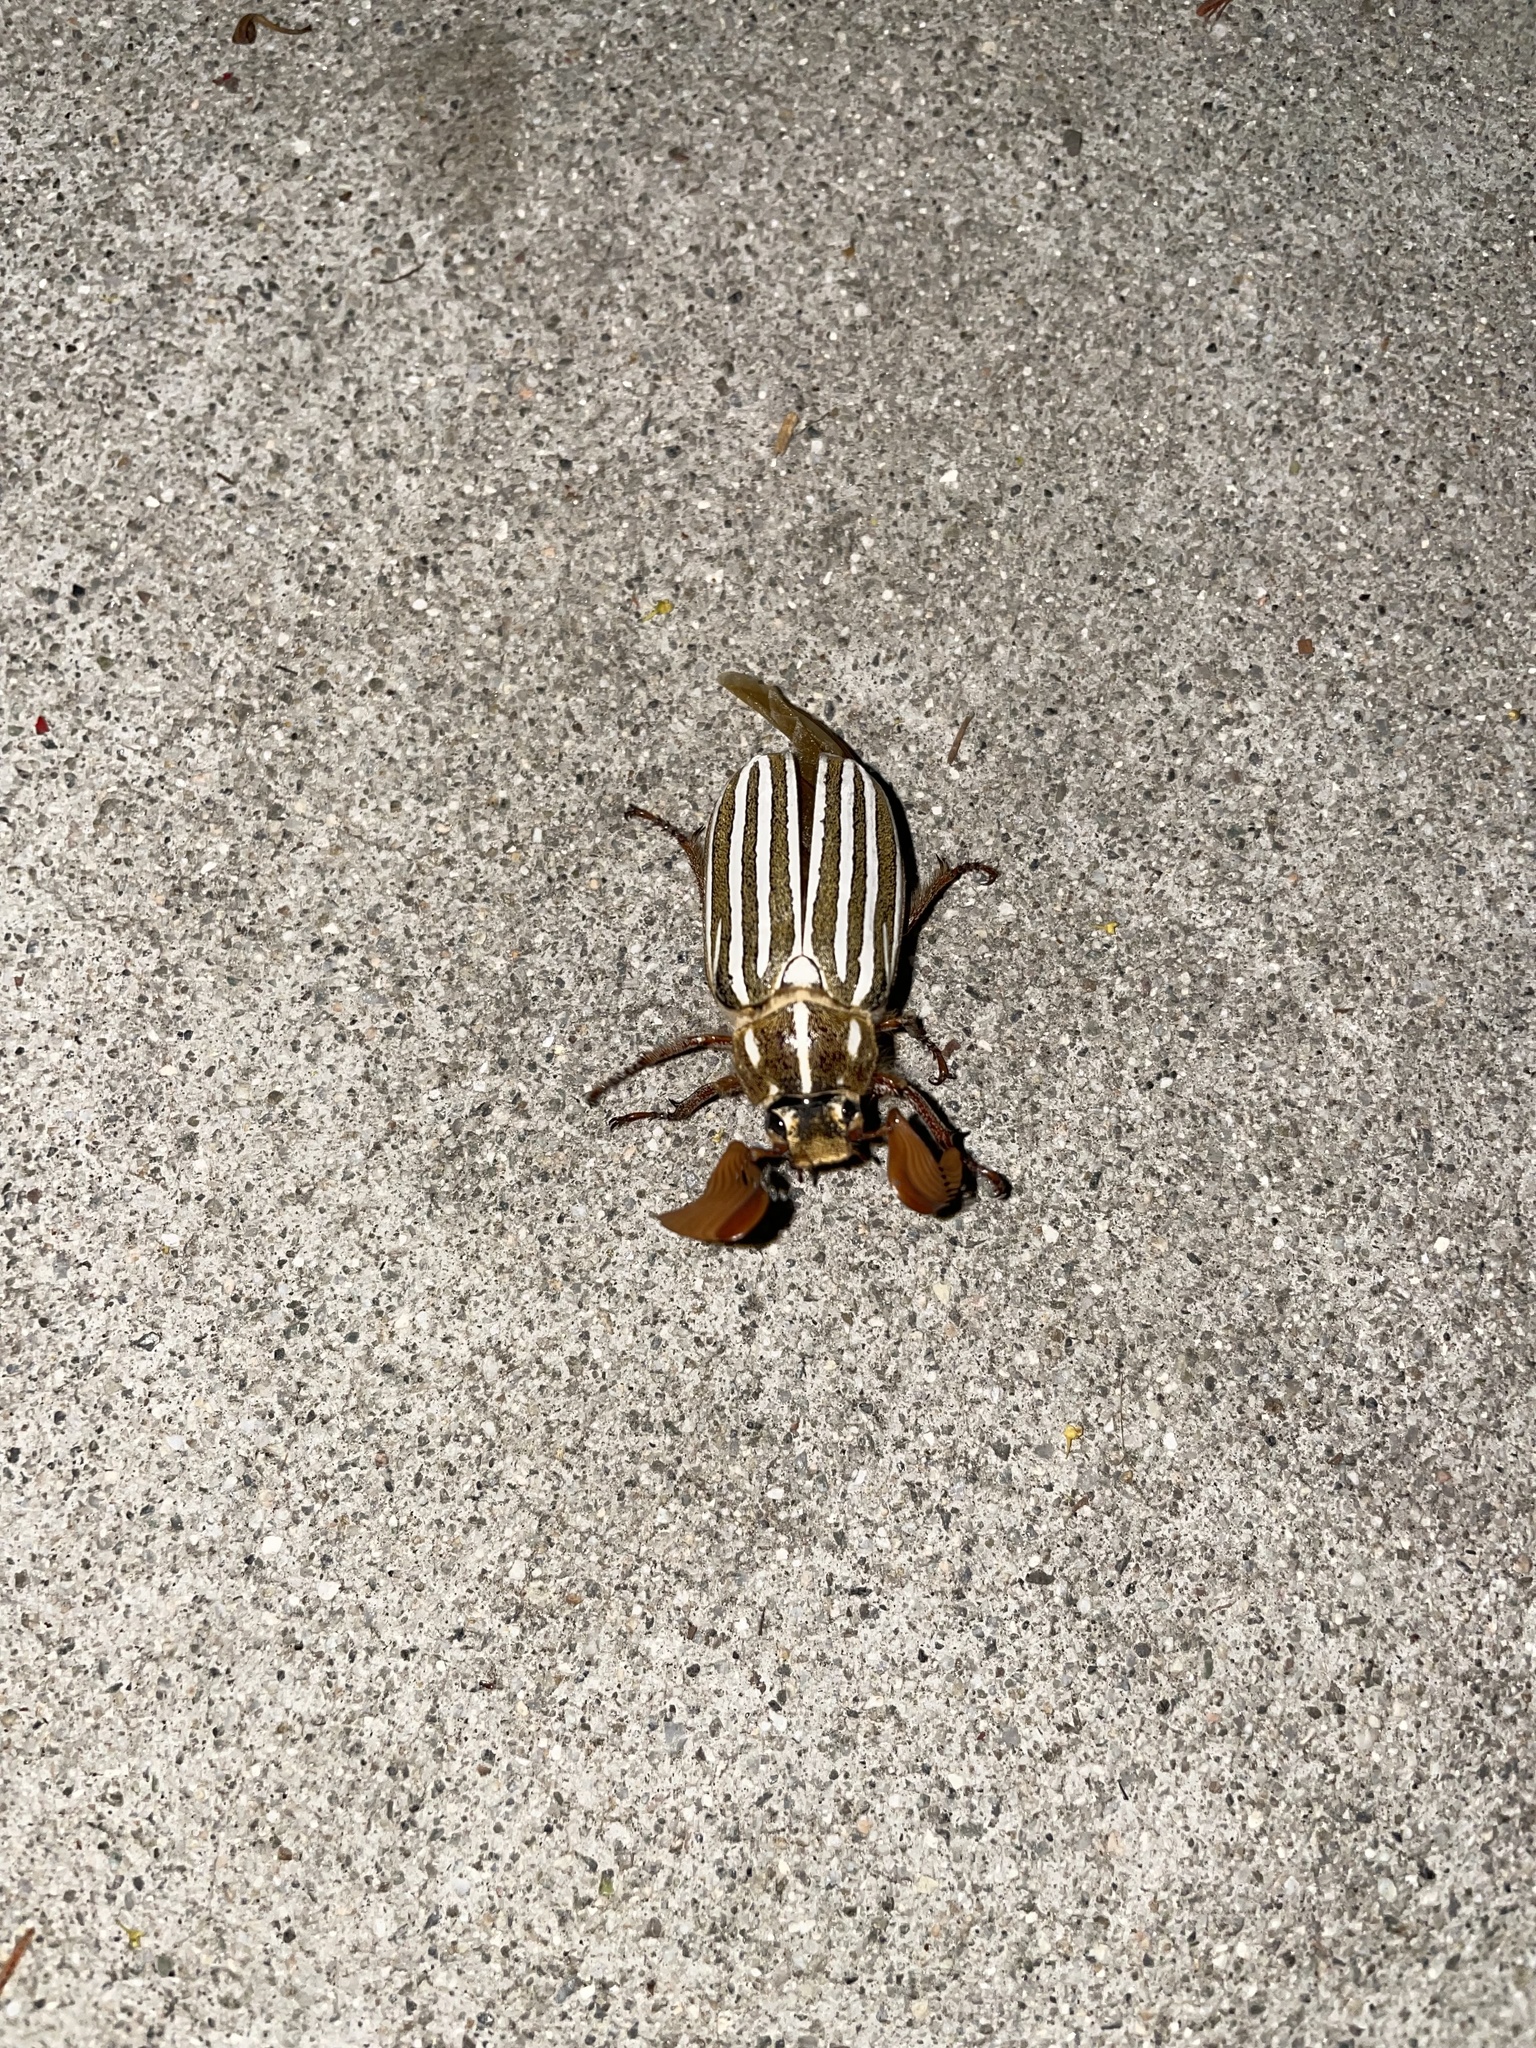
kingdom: Animalia
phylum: Arthropoda
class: Insecta
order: Coleoptera
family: Scarabaeidae
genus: Polyphylla
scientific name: Polyphylla decemlineata
